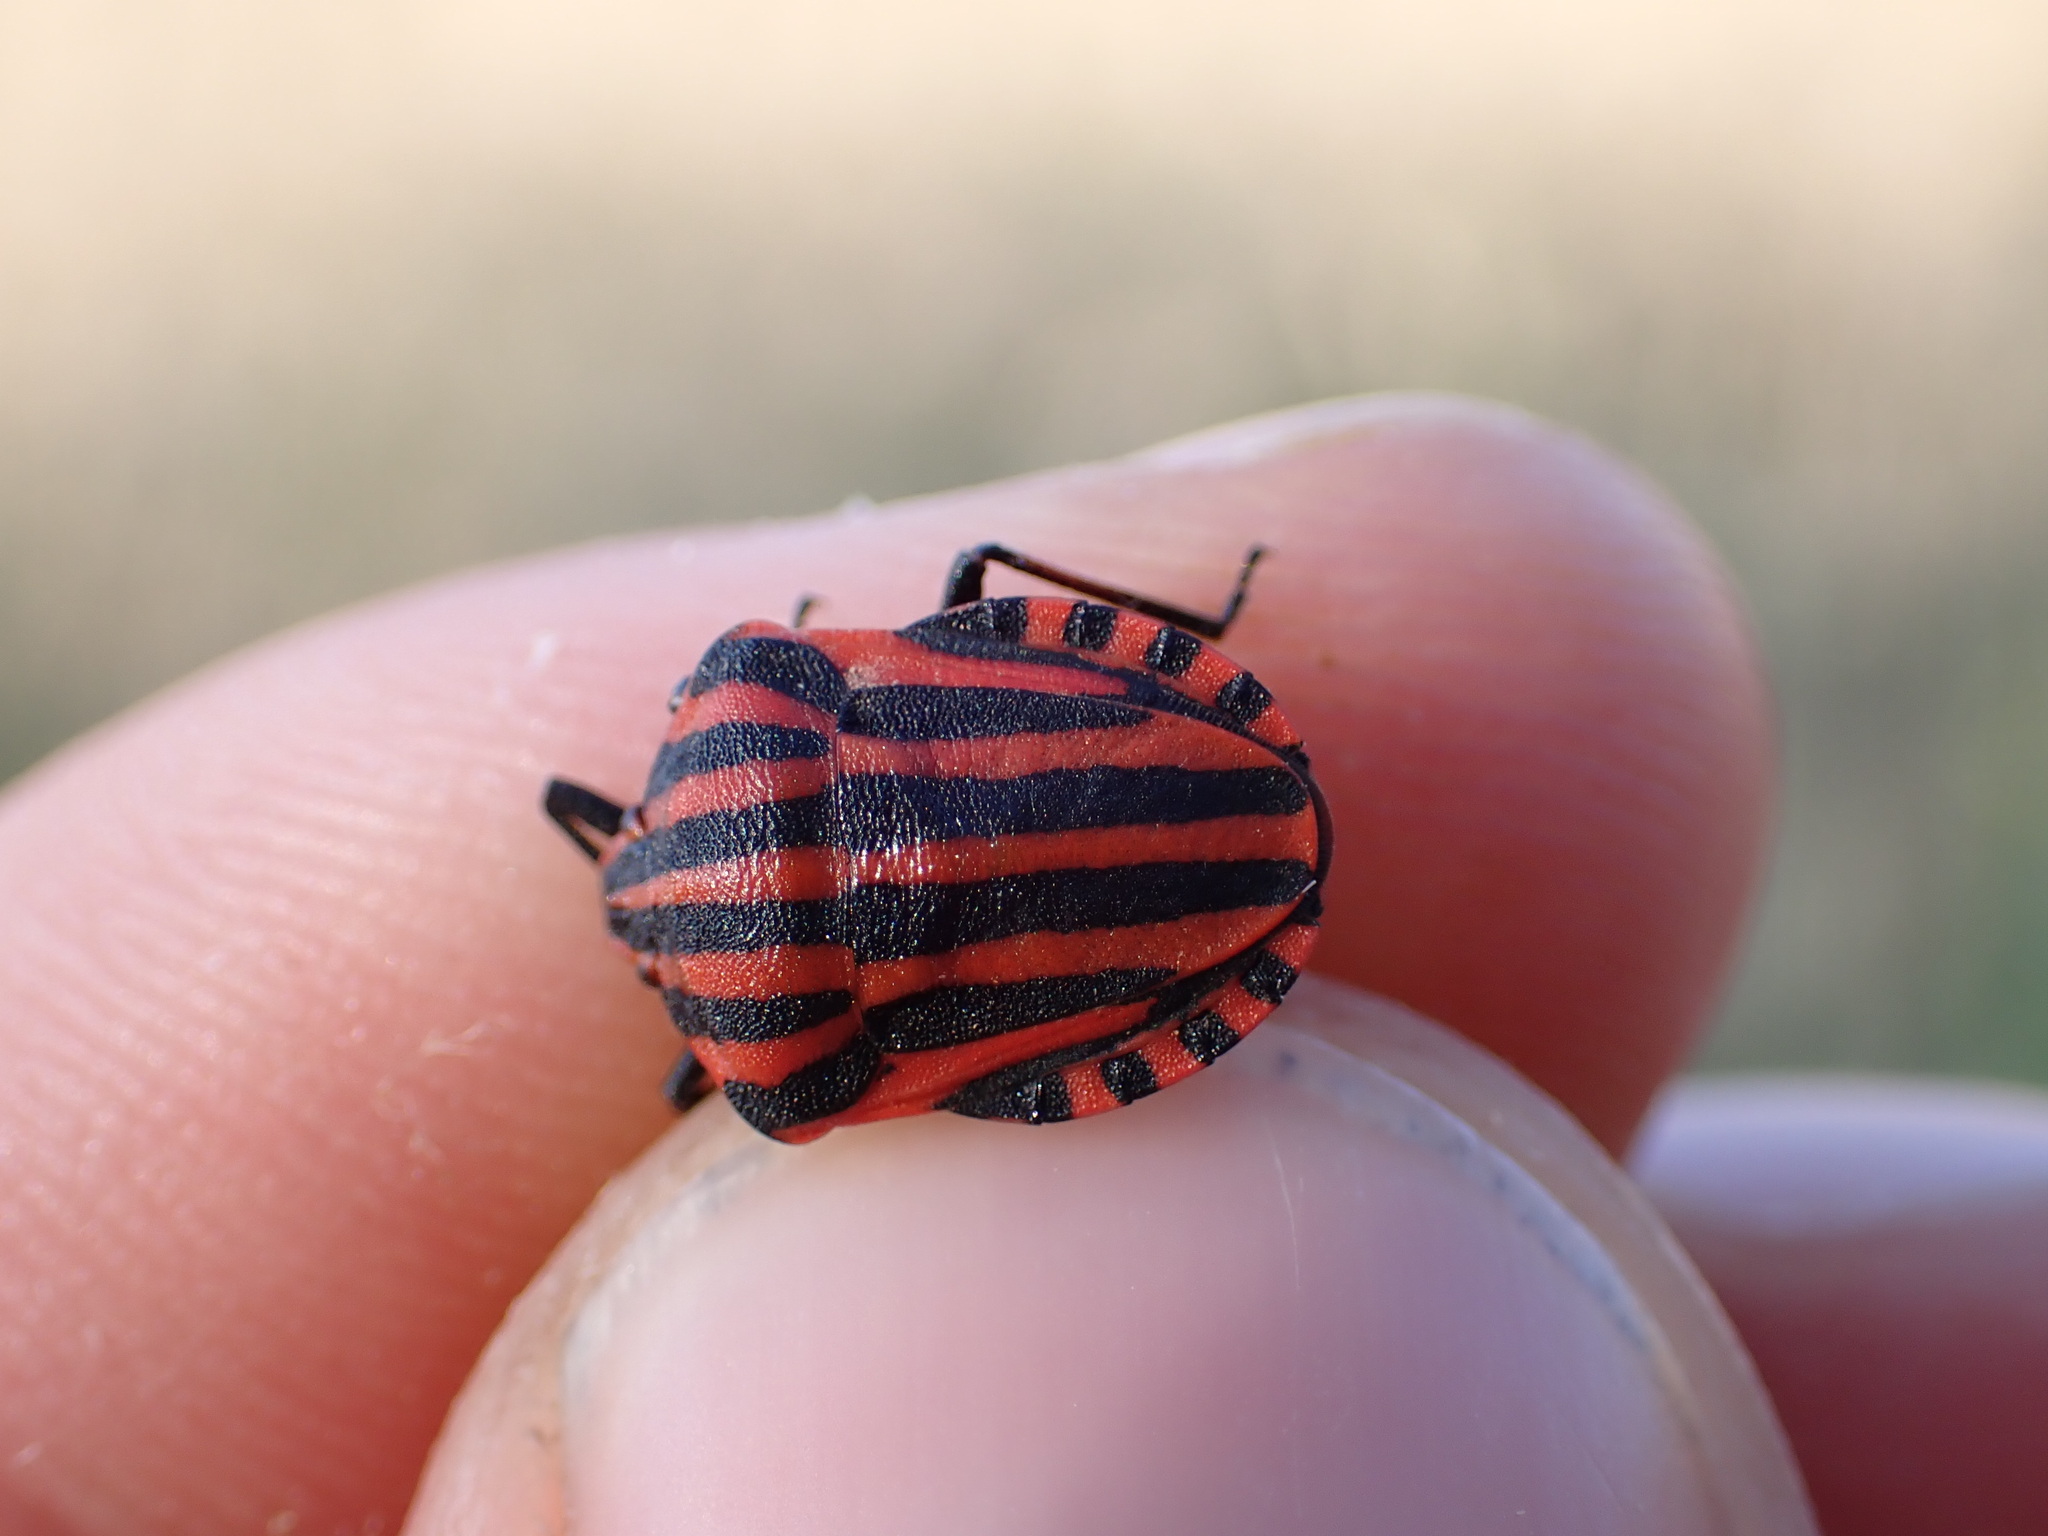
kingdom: Animalia
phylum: Arthropoda
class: Insecta
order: Hemiptera
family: Pentatomidae
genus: Graphosoma
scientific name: Graphosoma italicum
